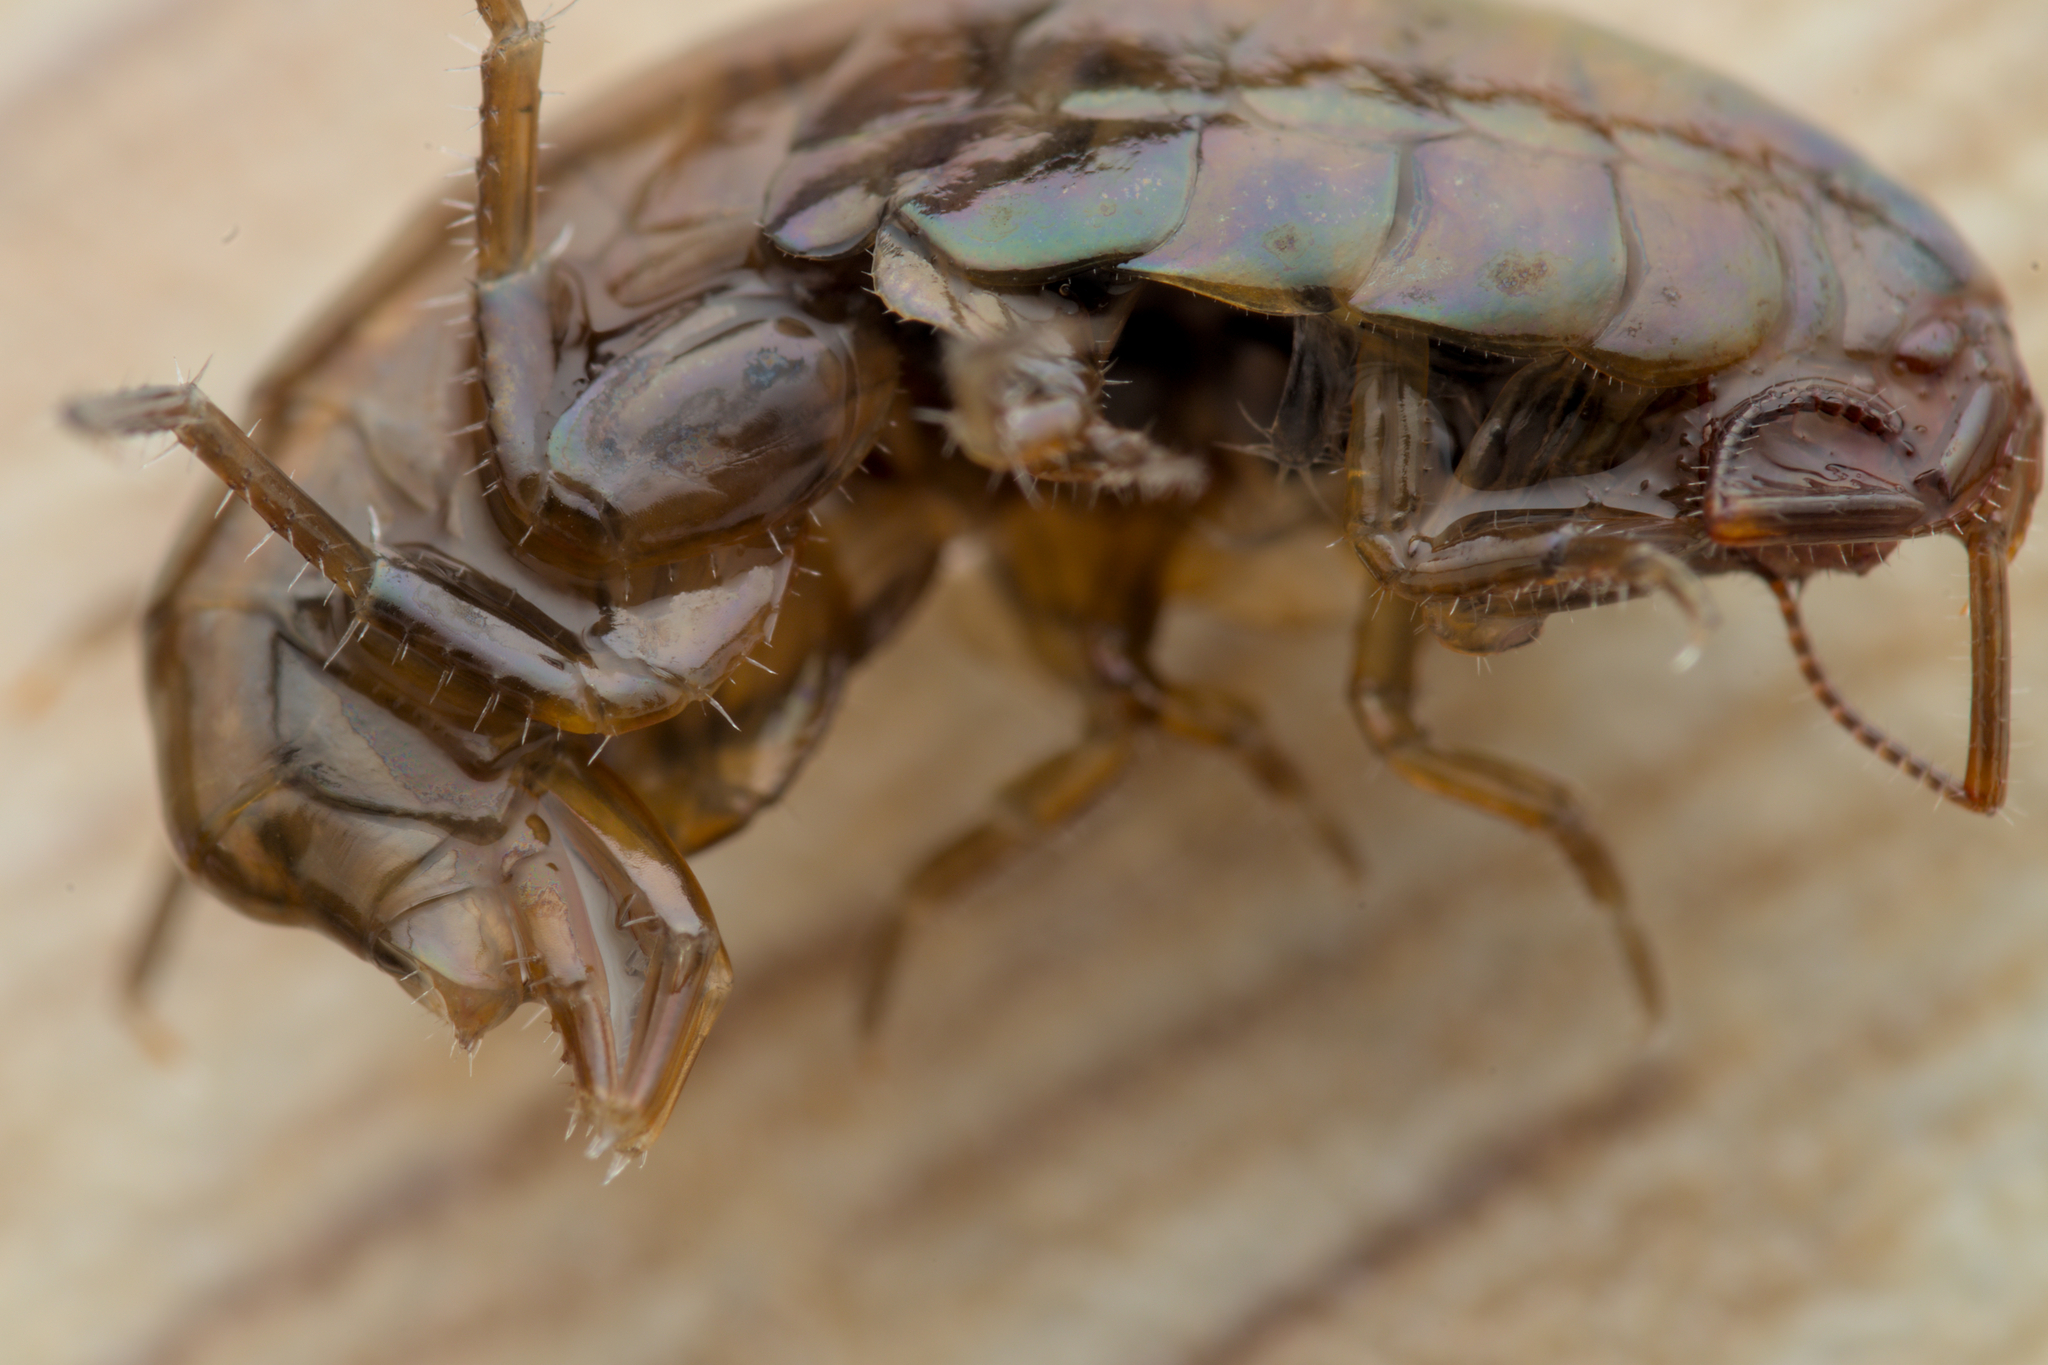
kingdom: Animalia
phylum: Arthropoda
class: Malacostraca
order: Amphipoda
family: Arcitalitridae
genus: Arcitalitrus
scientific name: Arcitalitrus dorrieni
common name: Landhopper
